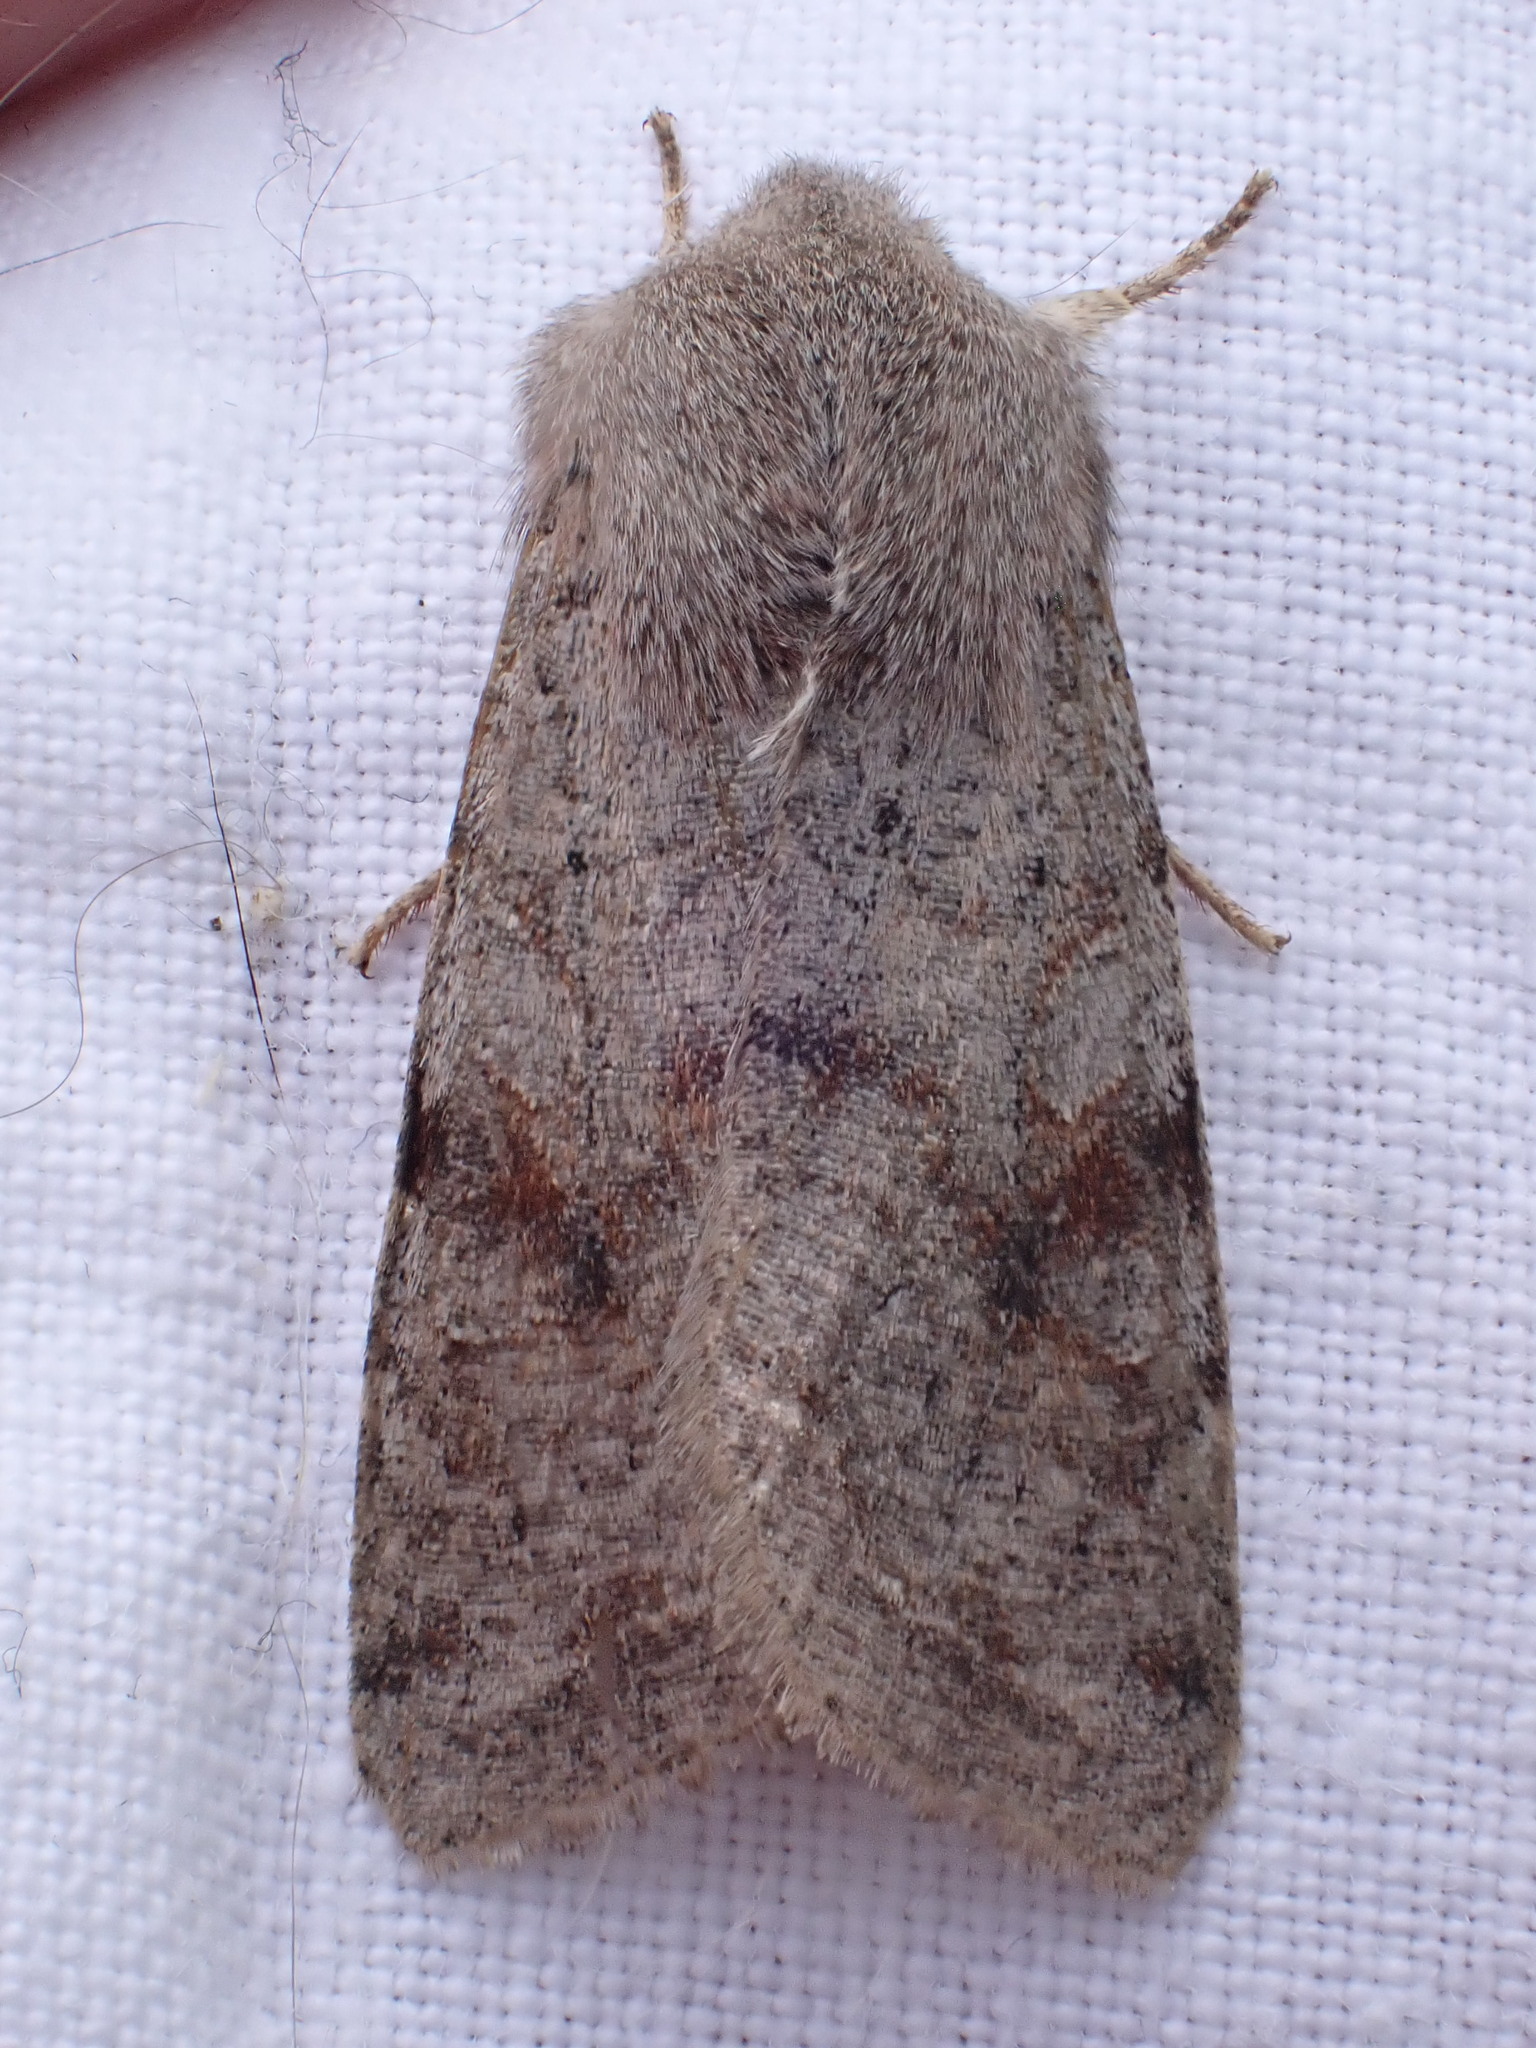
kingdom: Animalia
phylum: Arthropoda
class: Insecta
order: Lepidoptera
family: Noctuidae
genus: Orthosia
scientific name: Orthosia incerta
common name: Clouded drab
